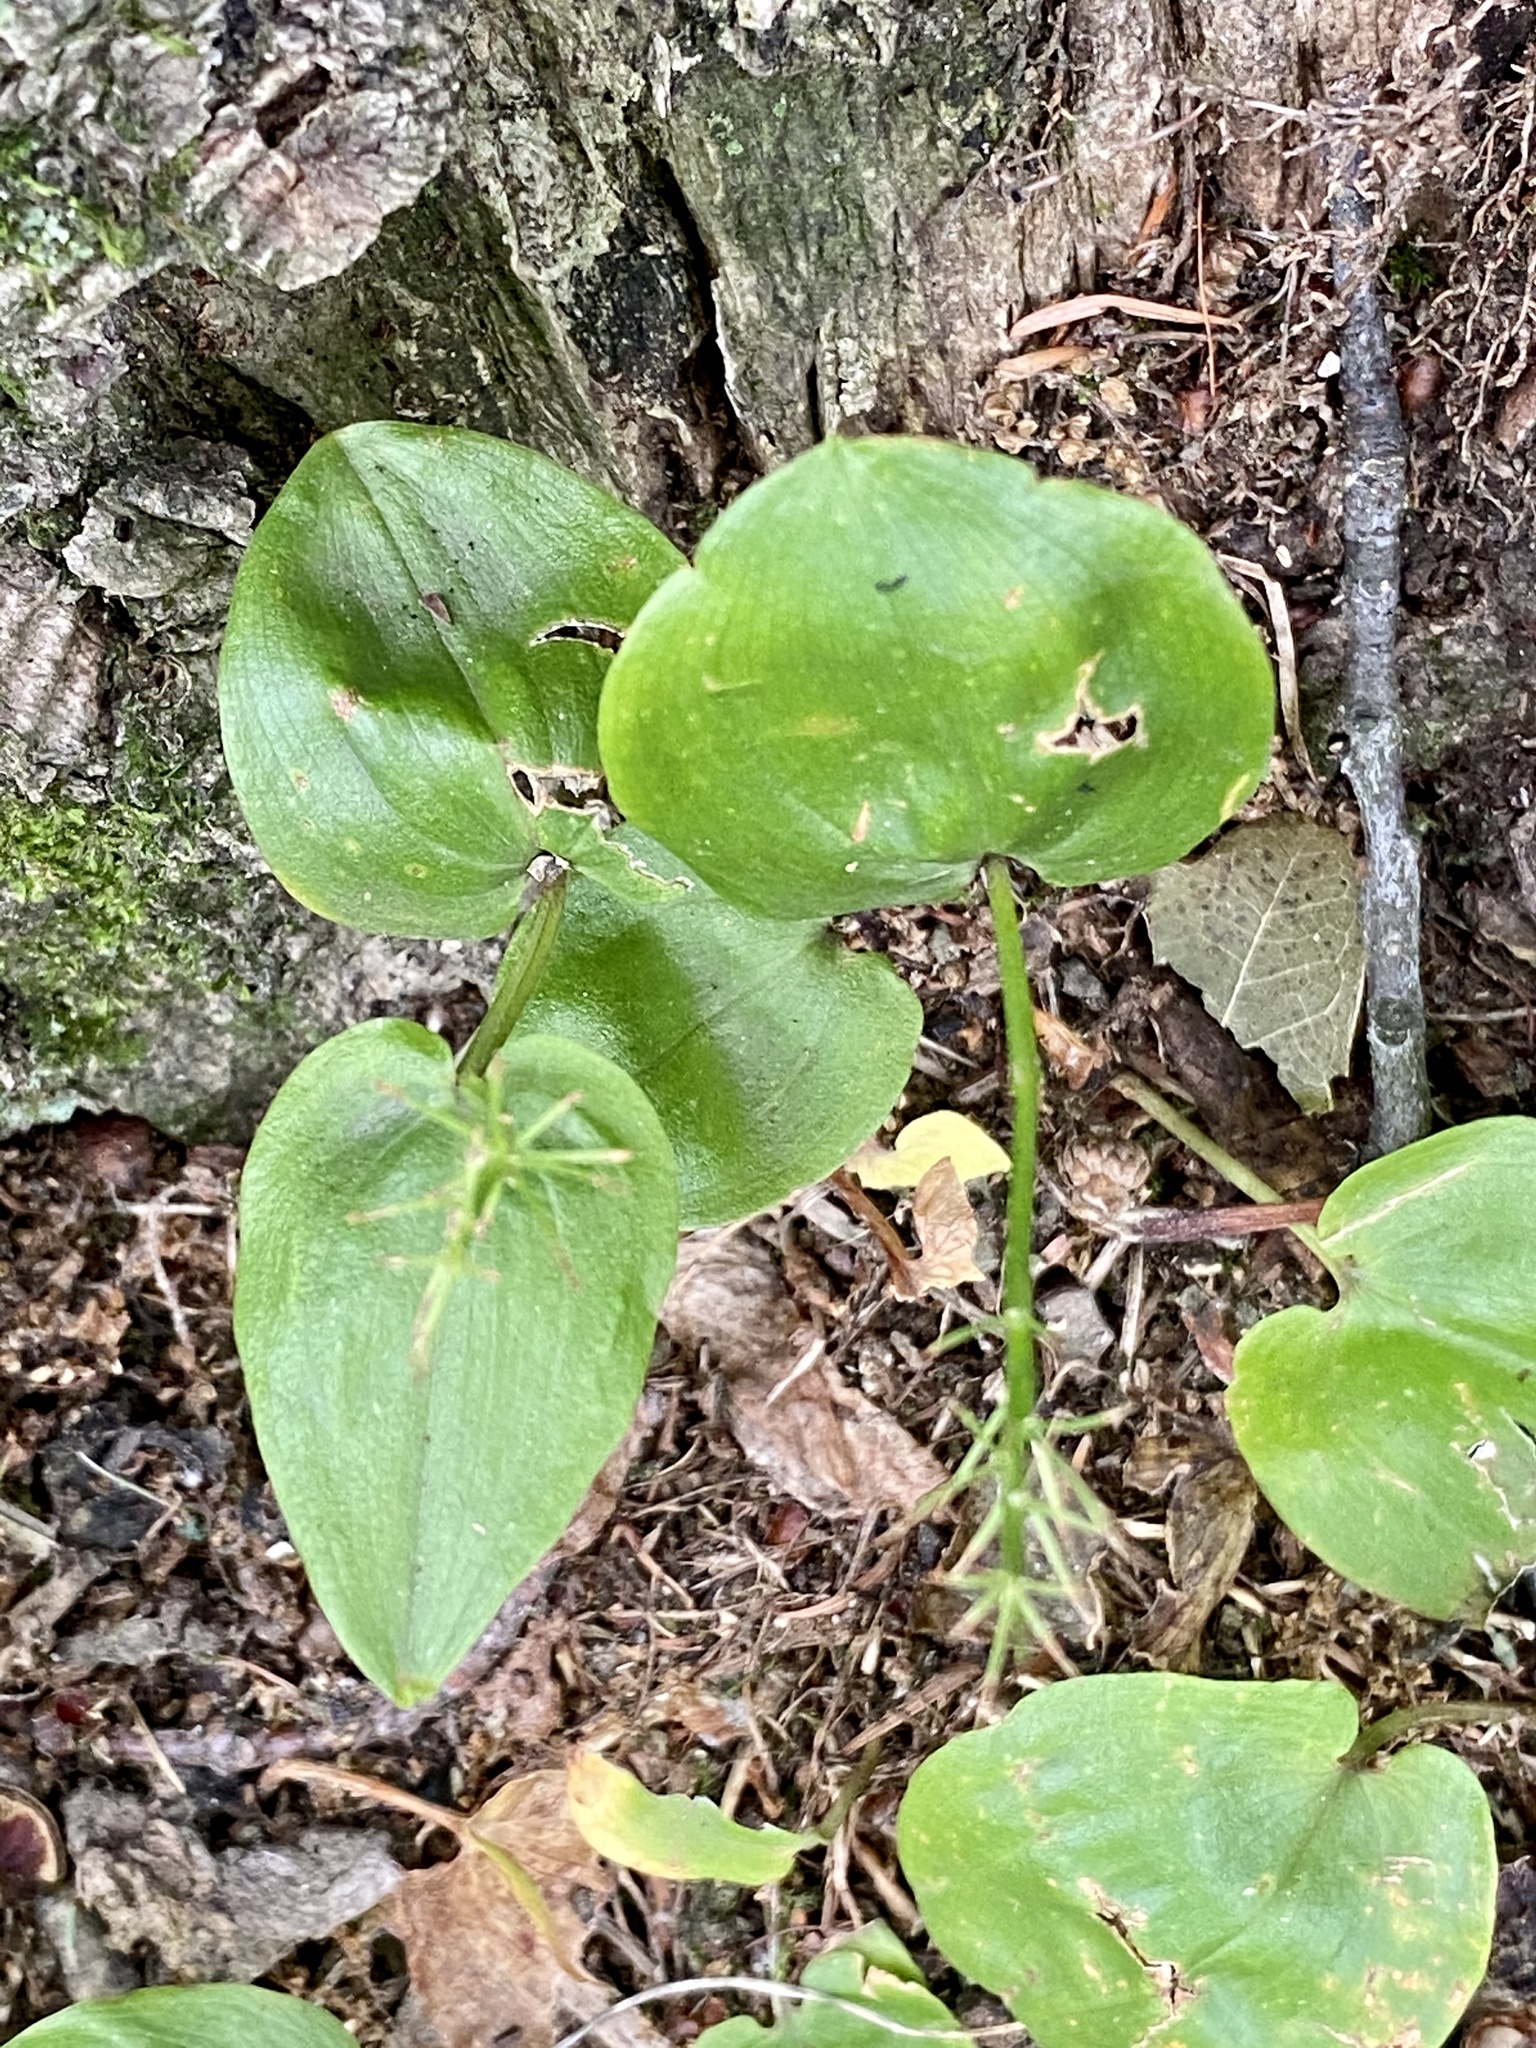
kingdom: Plantae
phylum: Tracheophyta
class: Liliopsida
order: Asparagales
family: Asparagaceae
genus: Maianthemum
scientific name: Maianthemum canadense
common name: False lily-of-the-valley
